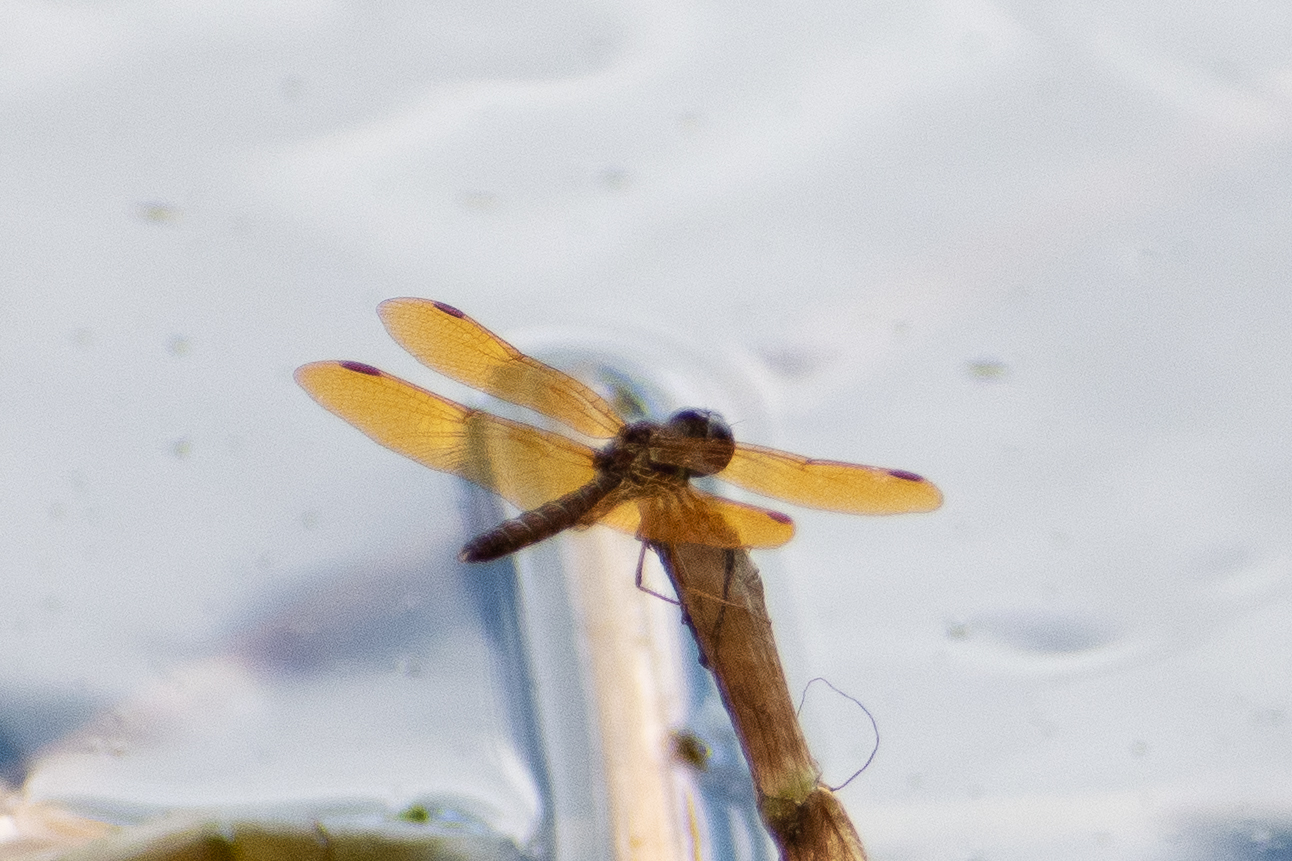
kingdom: Animalia
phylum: Arthropoda
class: Insecta
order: Odonata
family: Libellulidae
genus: Perithemis
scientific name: Perithemis tenera
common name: Eastern amberwing
